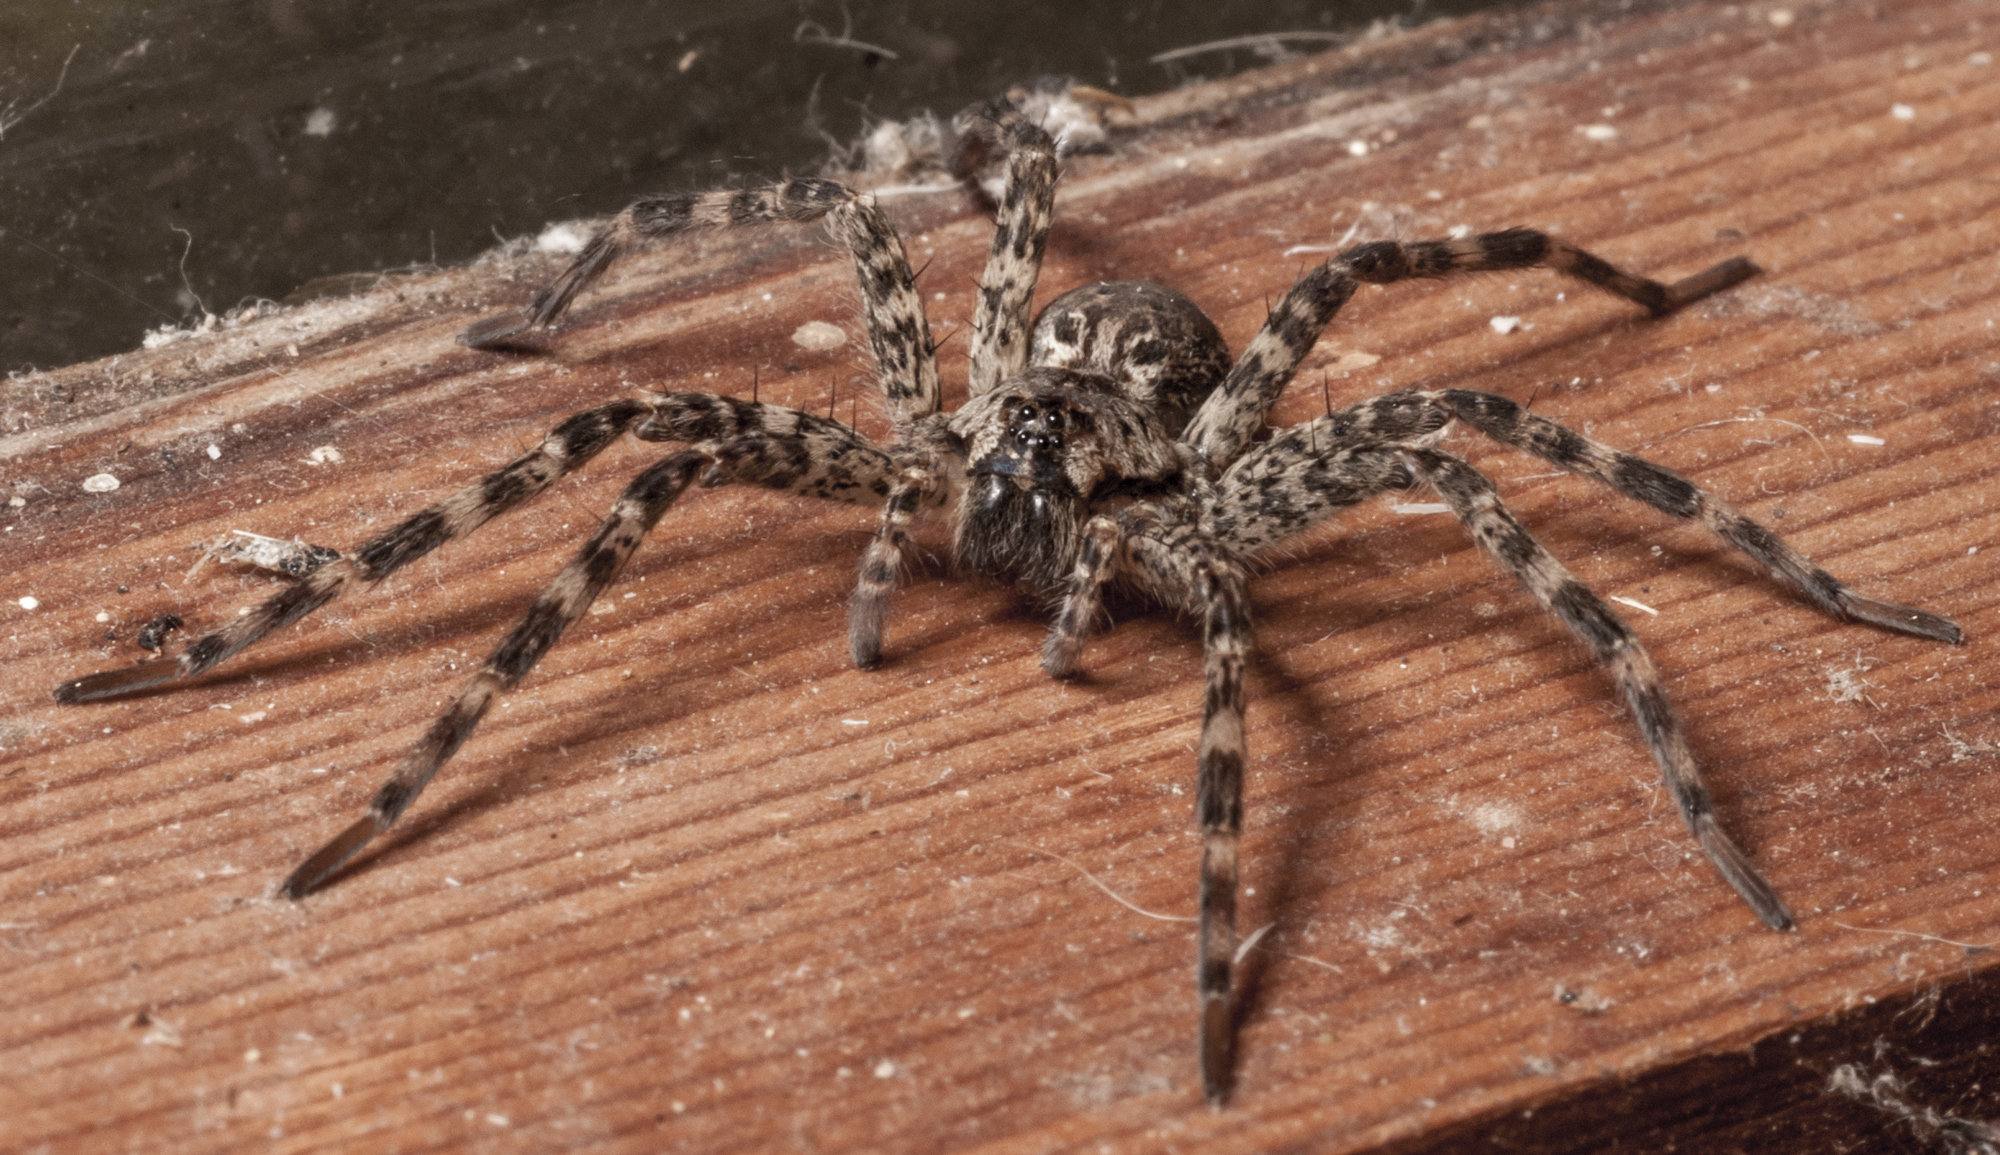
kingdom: Animalia
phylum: Arthropoda
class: Arachnida
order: Araneae
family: Pisauridae
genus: Dolomedes
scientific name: Dolomedes tenebrosus
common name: Dark fishing spider
